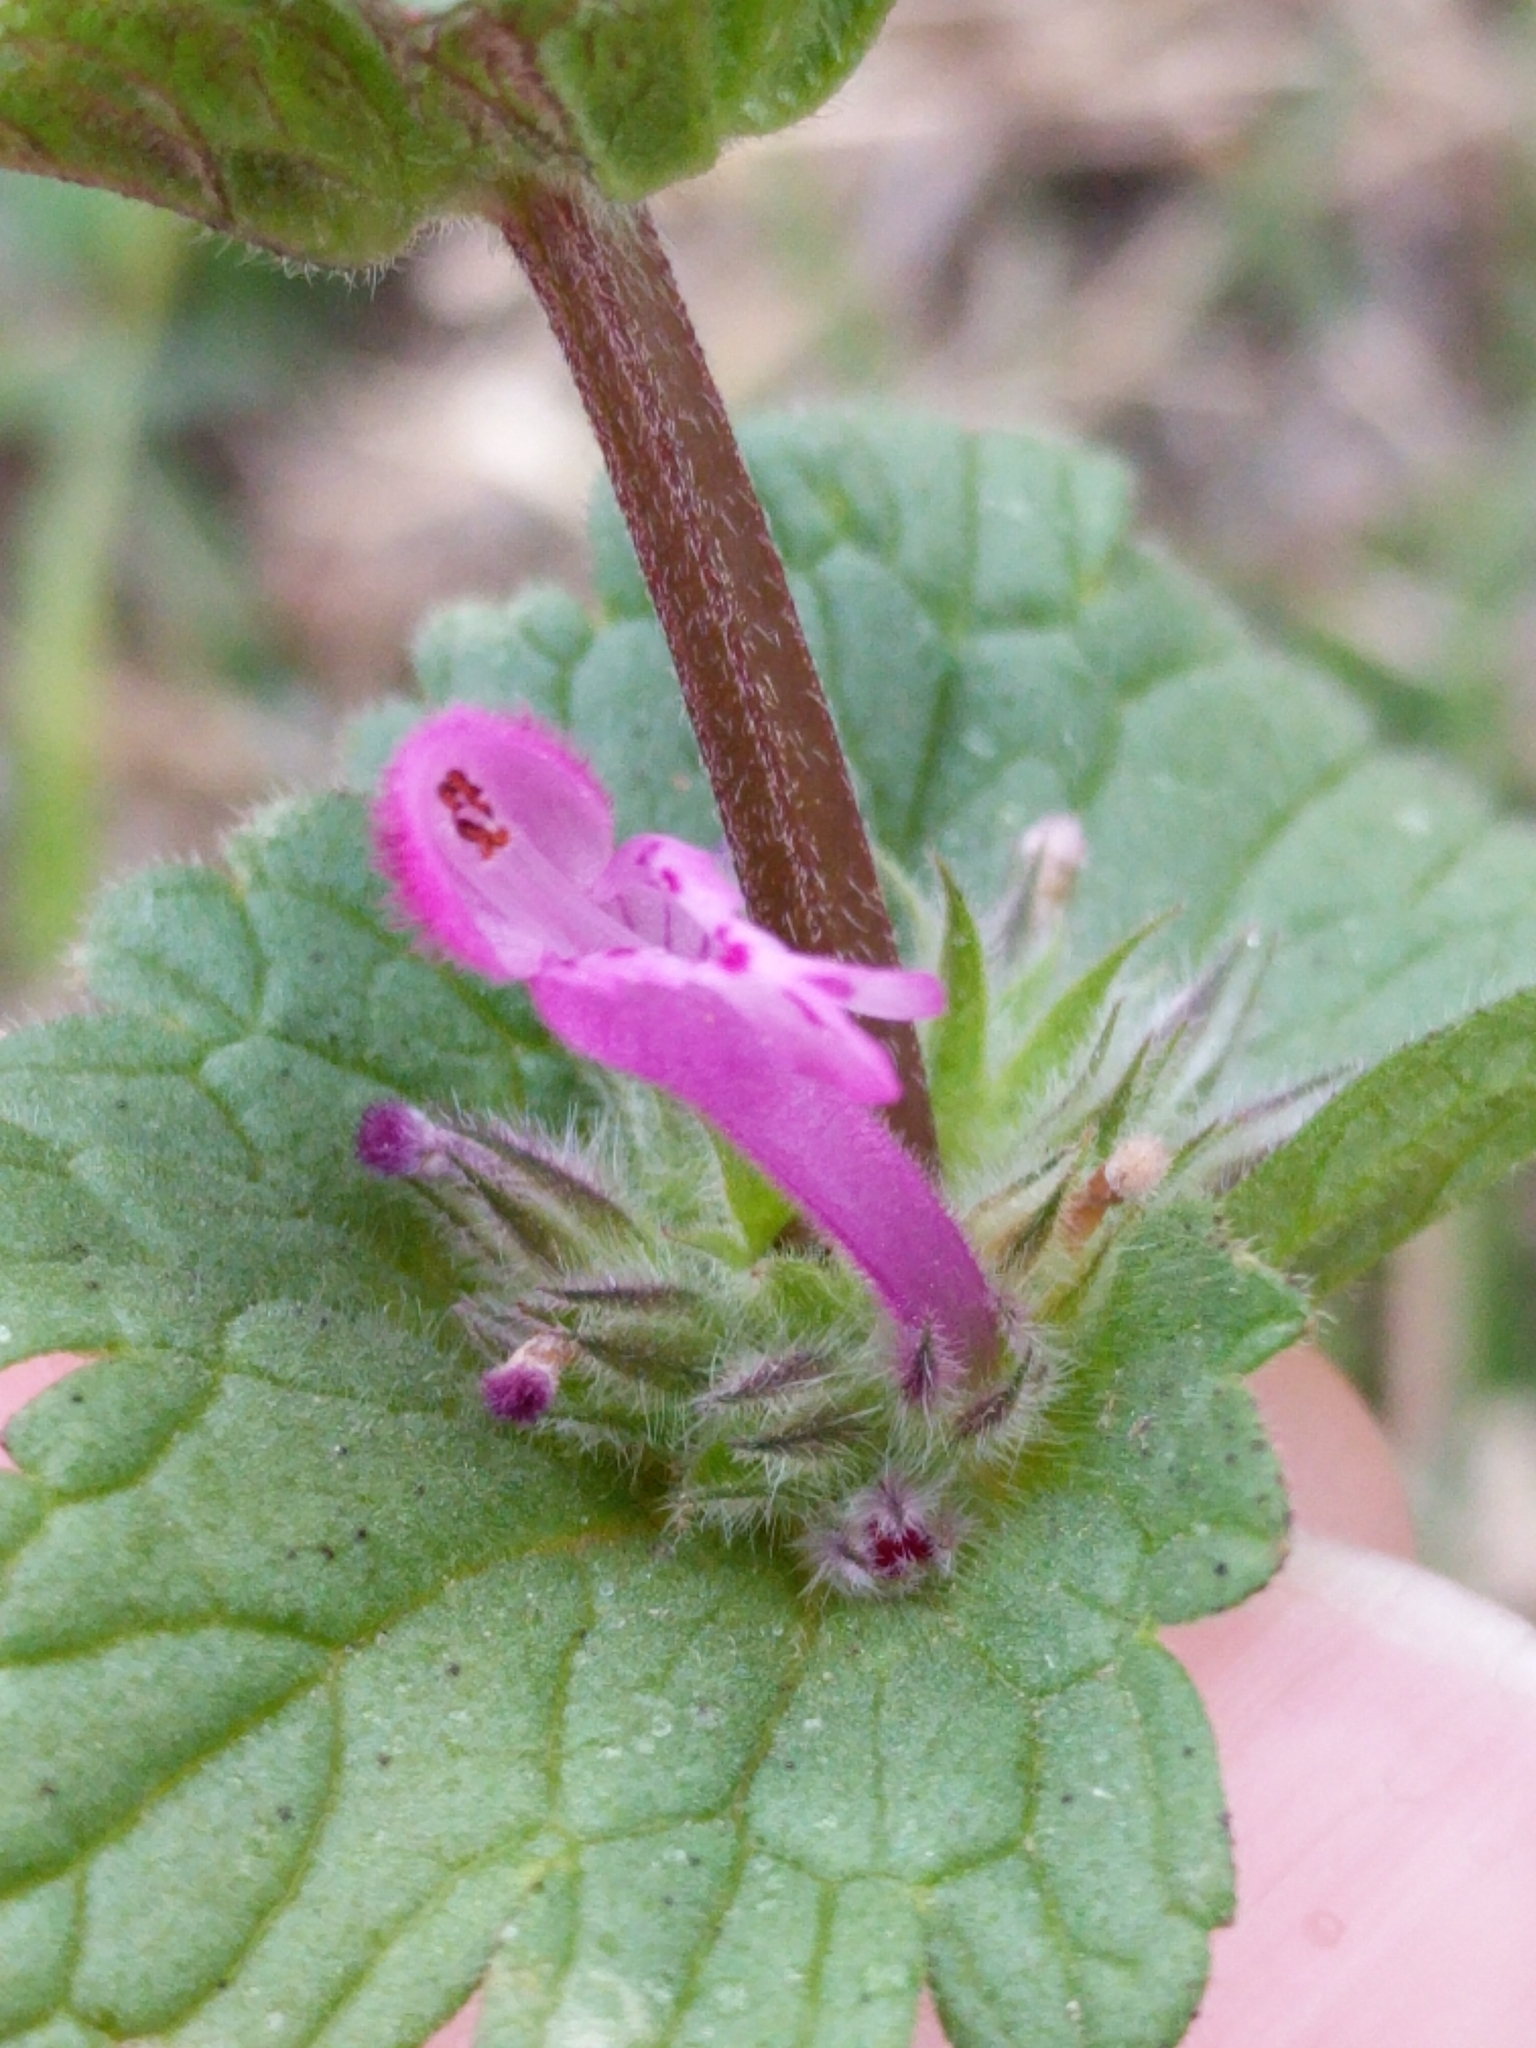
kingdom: Plantae
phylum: Tracheophyta
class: Magnoliopsida
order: Lamiales
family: Lamiaceae
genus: Lamium
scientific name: Lamium amplexicaule
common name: Henbit dead-nettle
